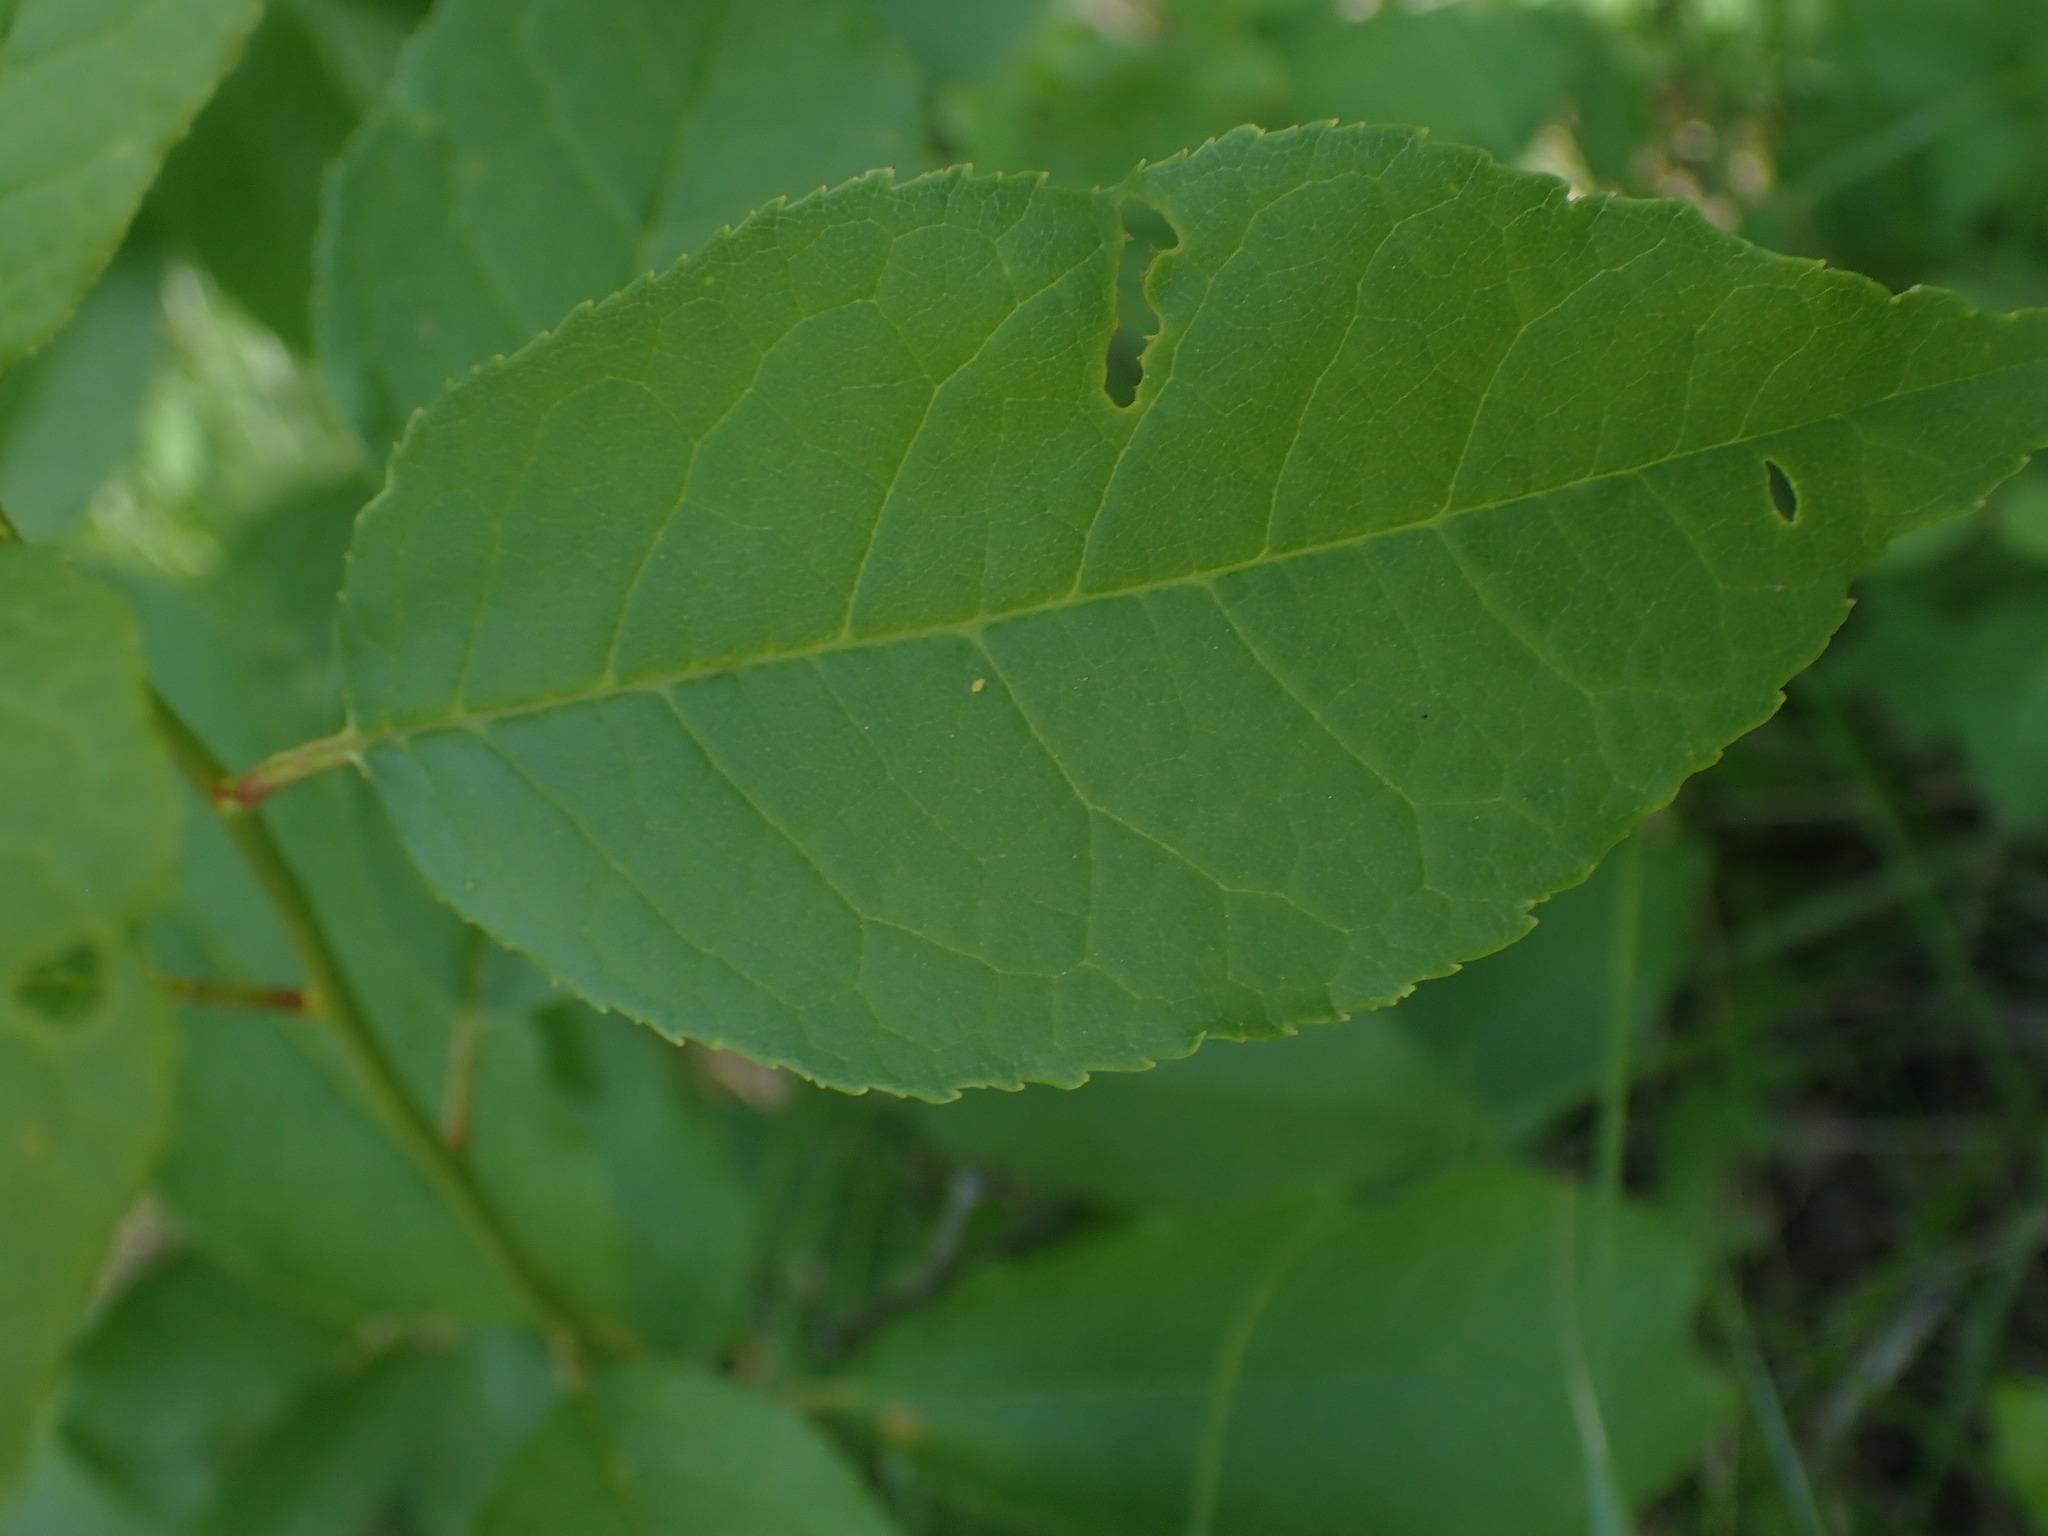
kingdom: Plantae
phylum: Tracheophyta
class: Magnoliopsida
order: Rosales
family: Rosaceae
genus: Prunus
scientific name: Prunus virginiana
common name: Chokecherry
